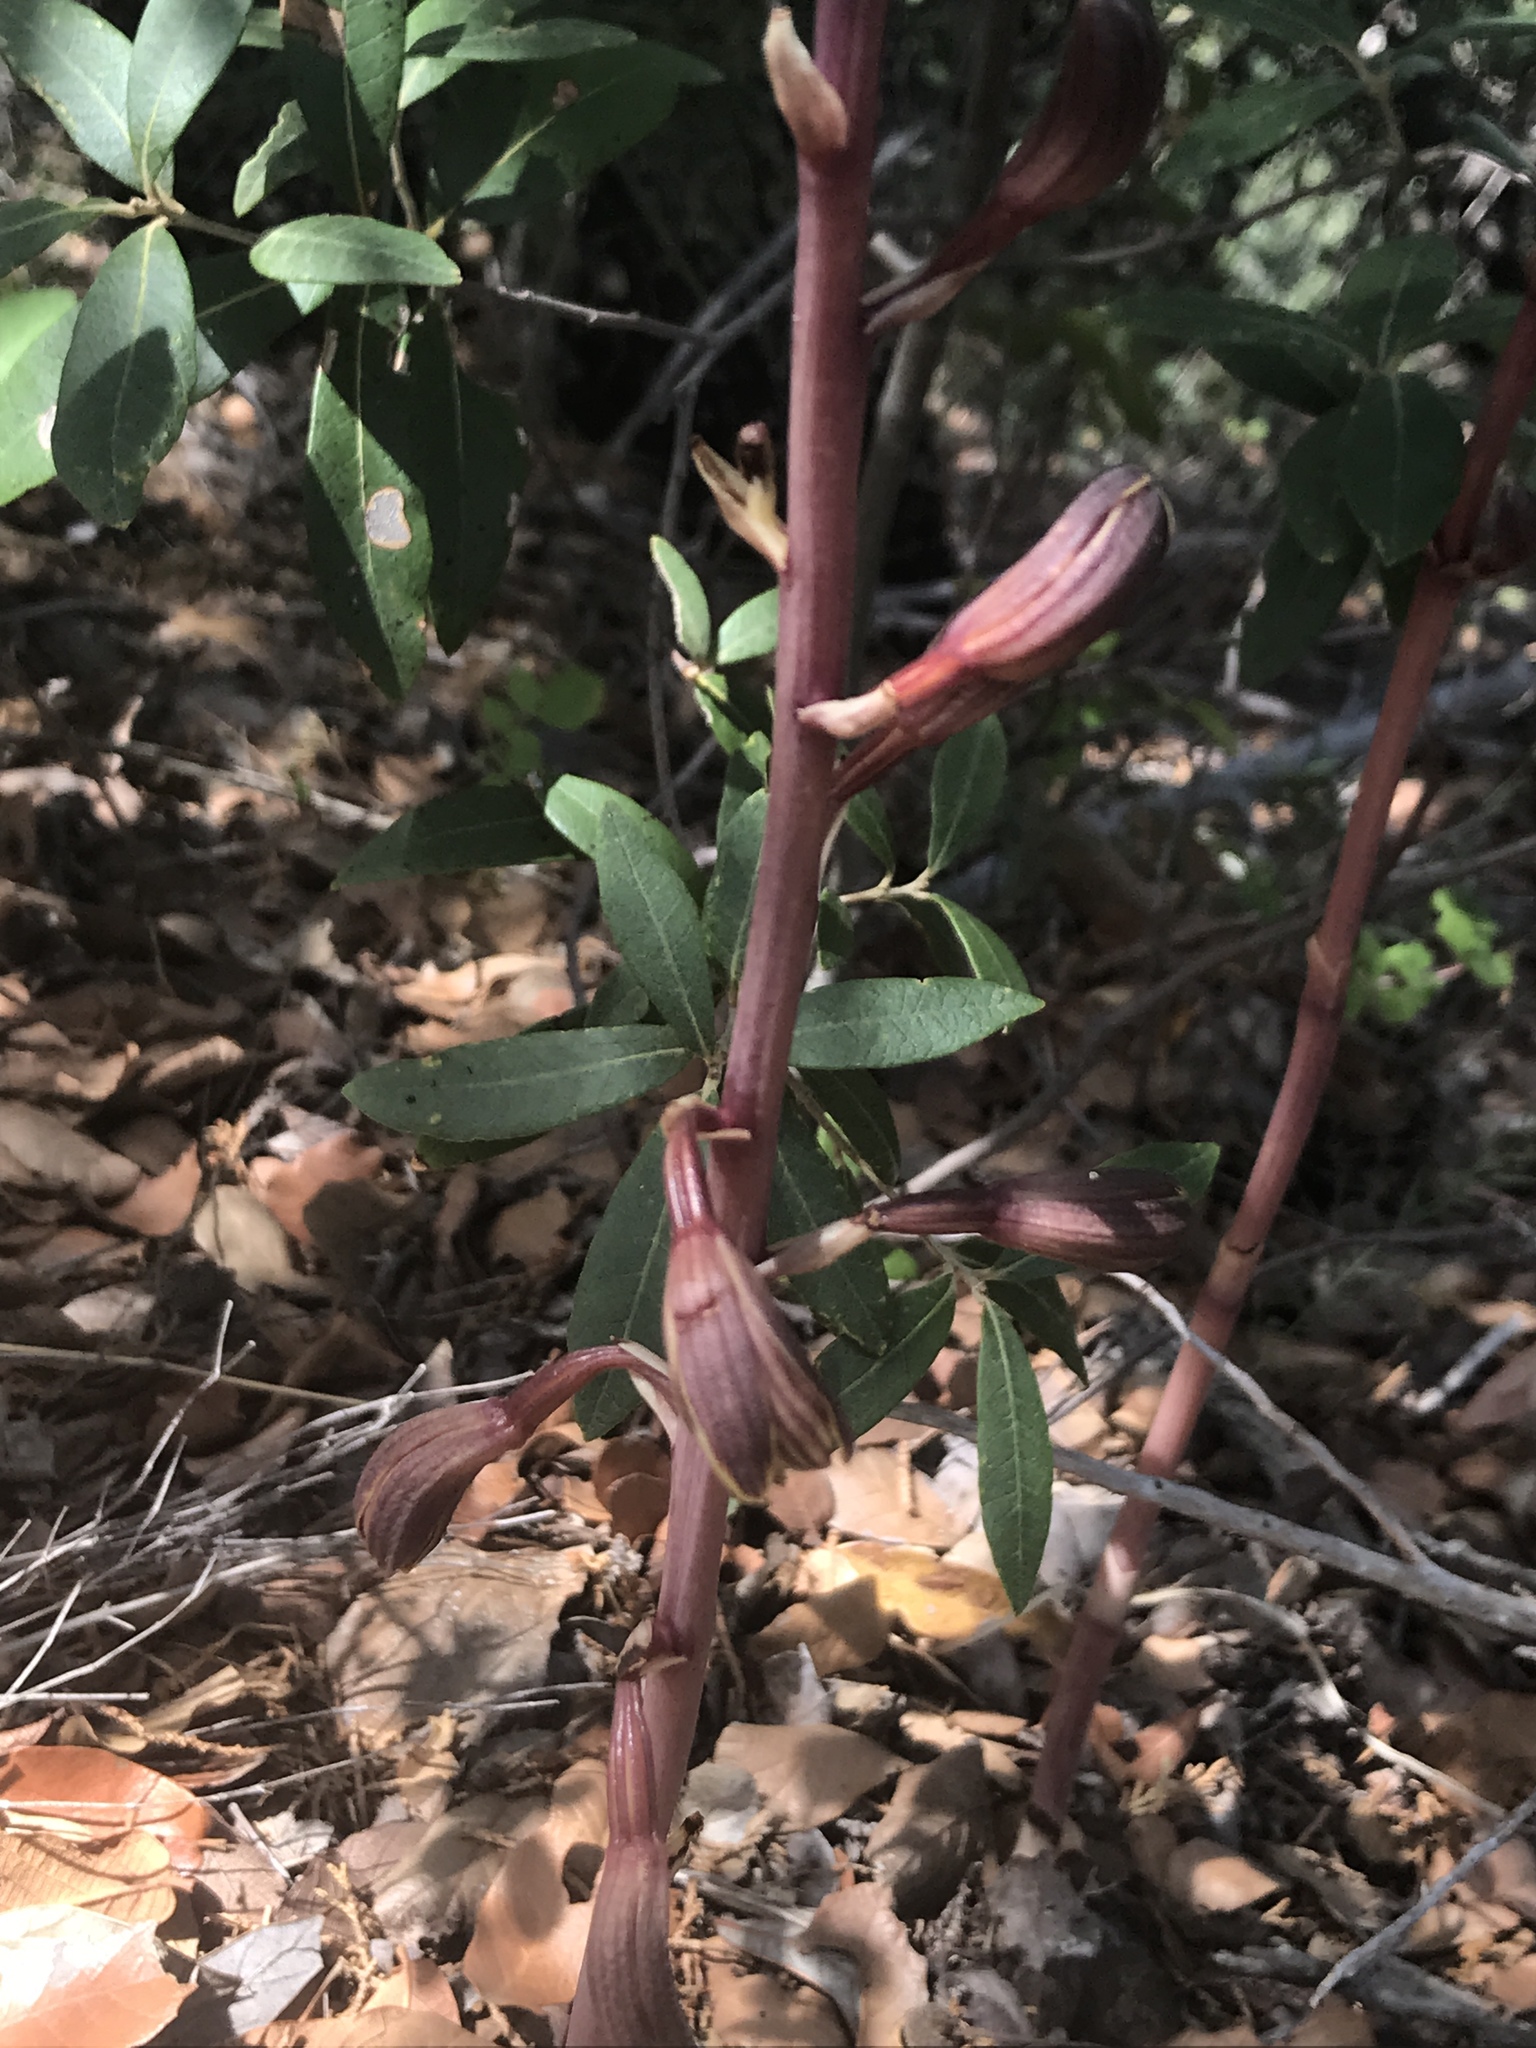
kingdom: Plantae
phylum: Tracheophyta
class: Liliopsida
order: Asparagales
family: Orchidaceae
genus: Bletia
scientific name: Bletia arizonica
